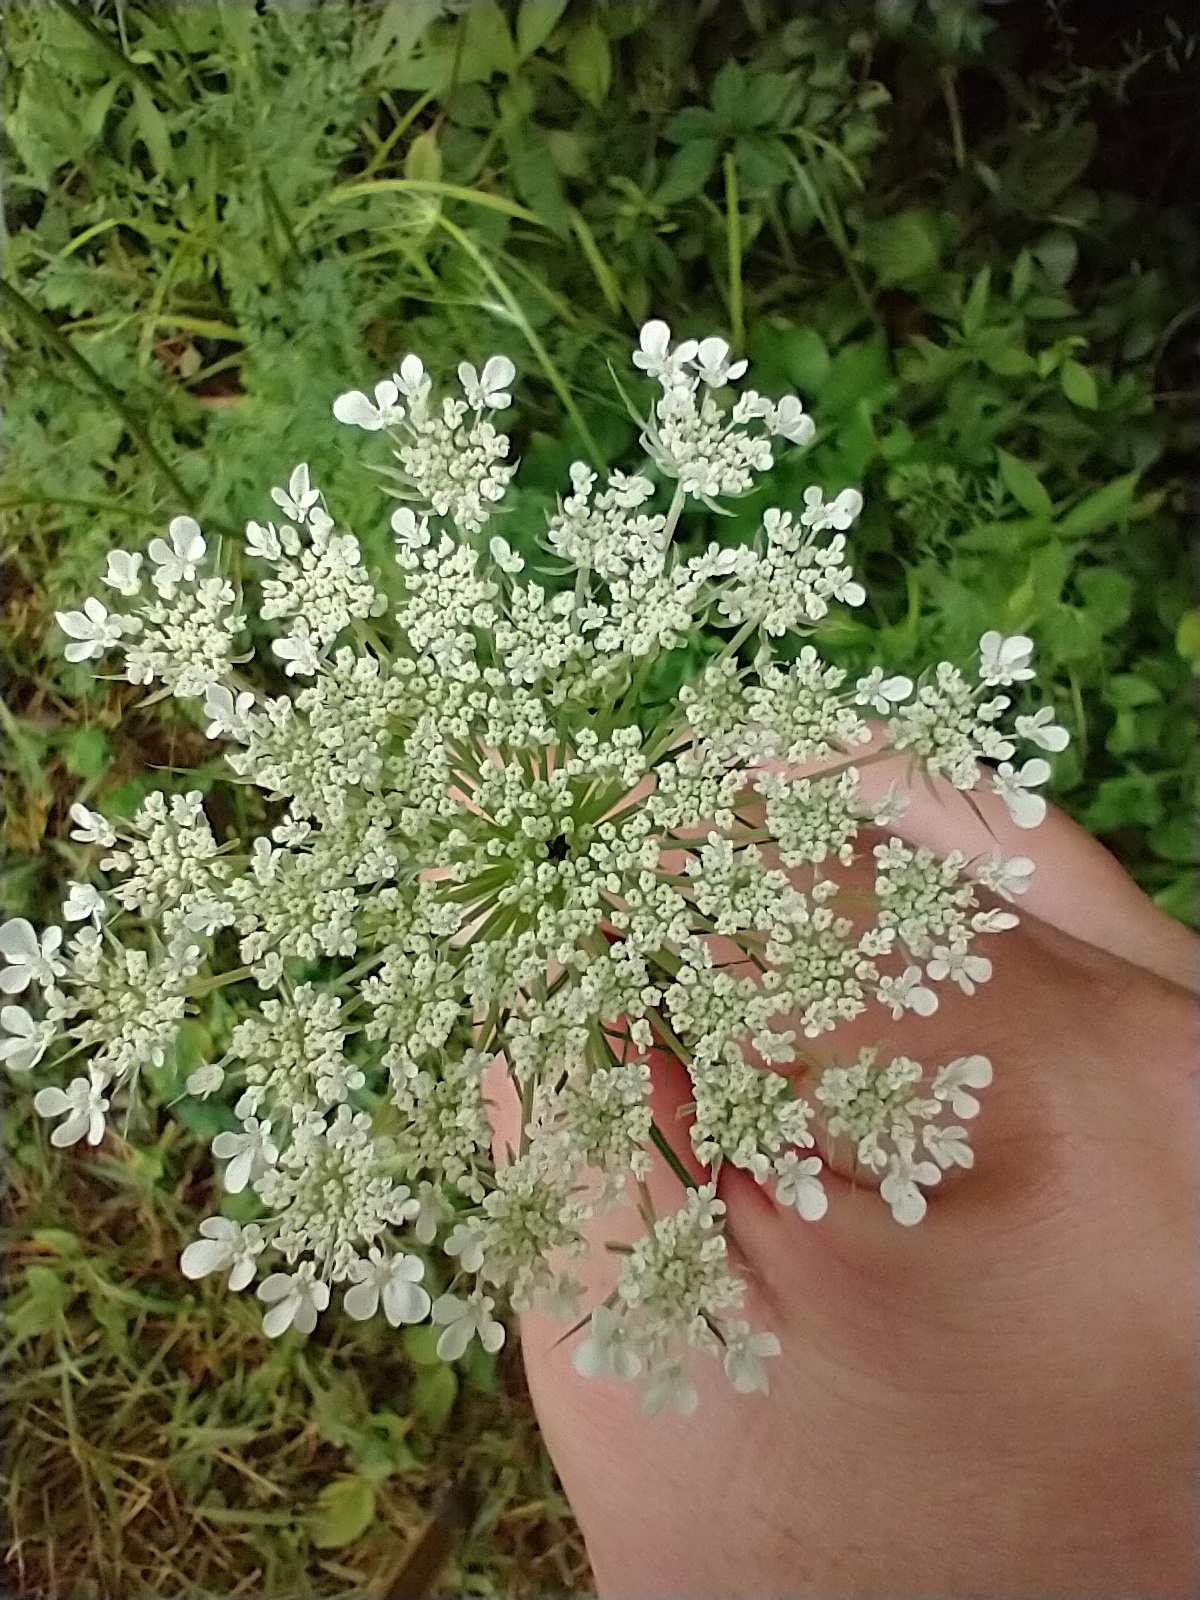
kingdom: Plantae
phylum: Tracheophyta
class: Magnoliopsida
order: Apiales
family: Apiaceae
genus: Daucus
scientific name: Daucus carota
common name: Wild carrot
